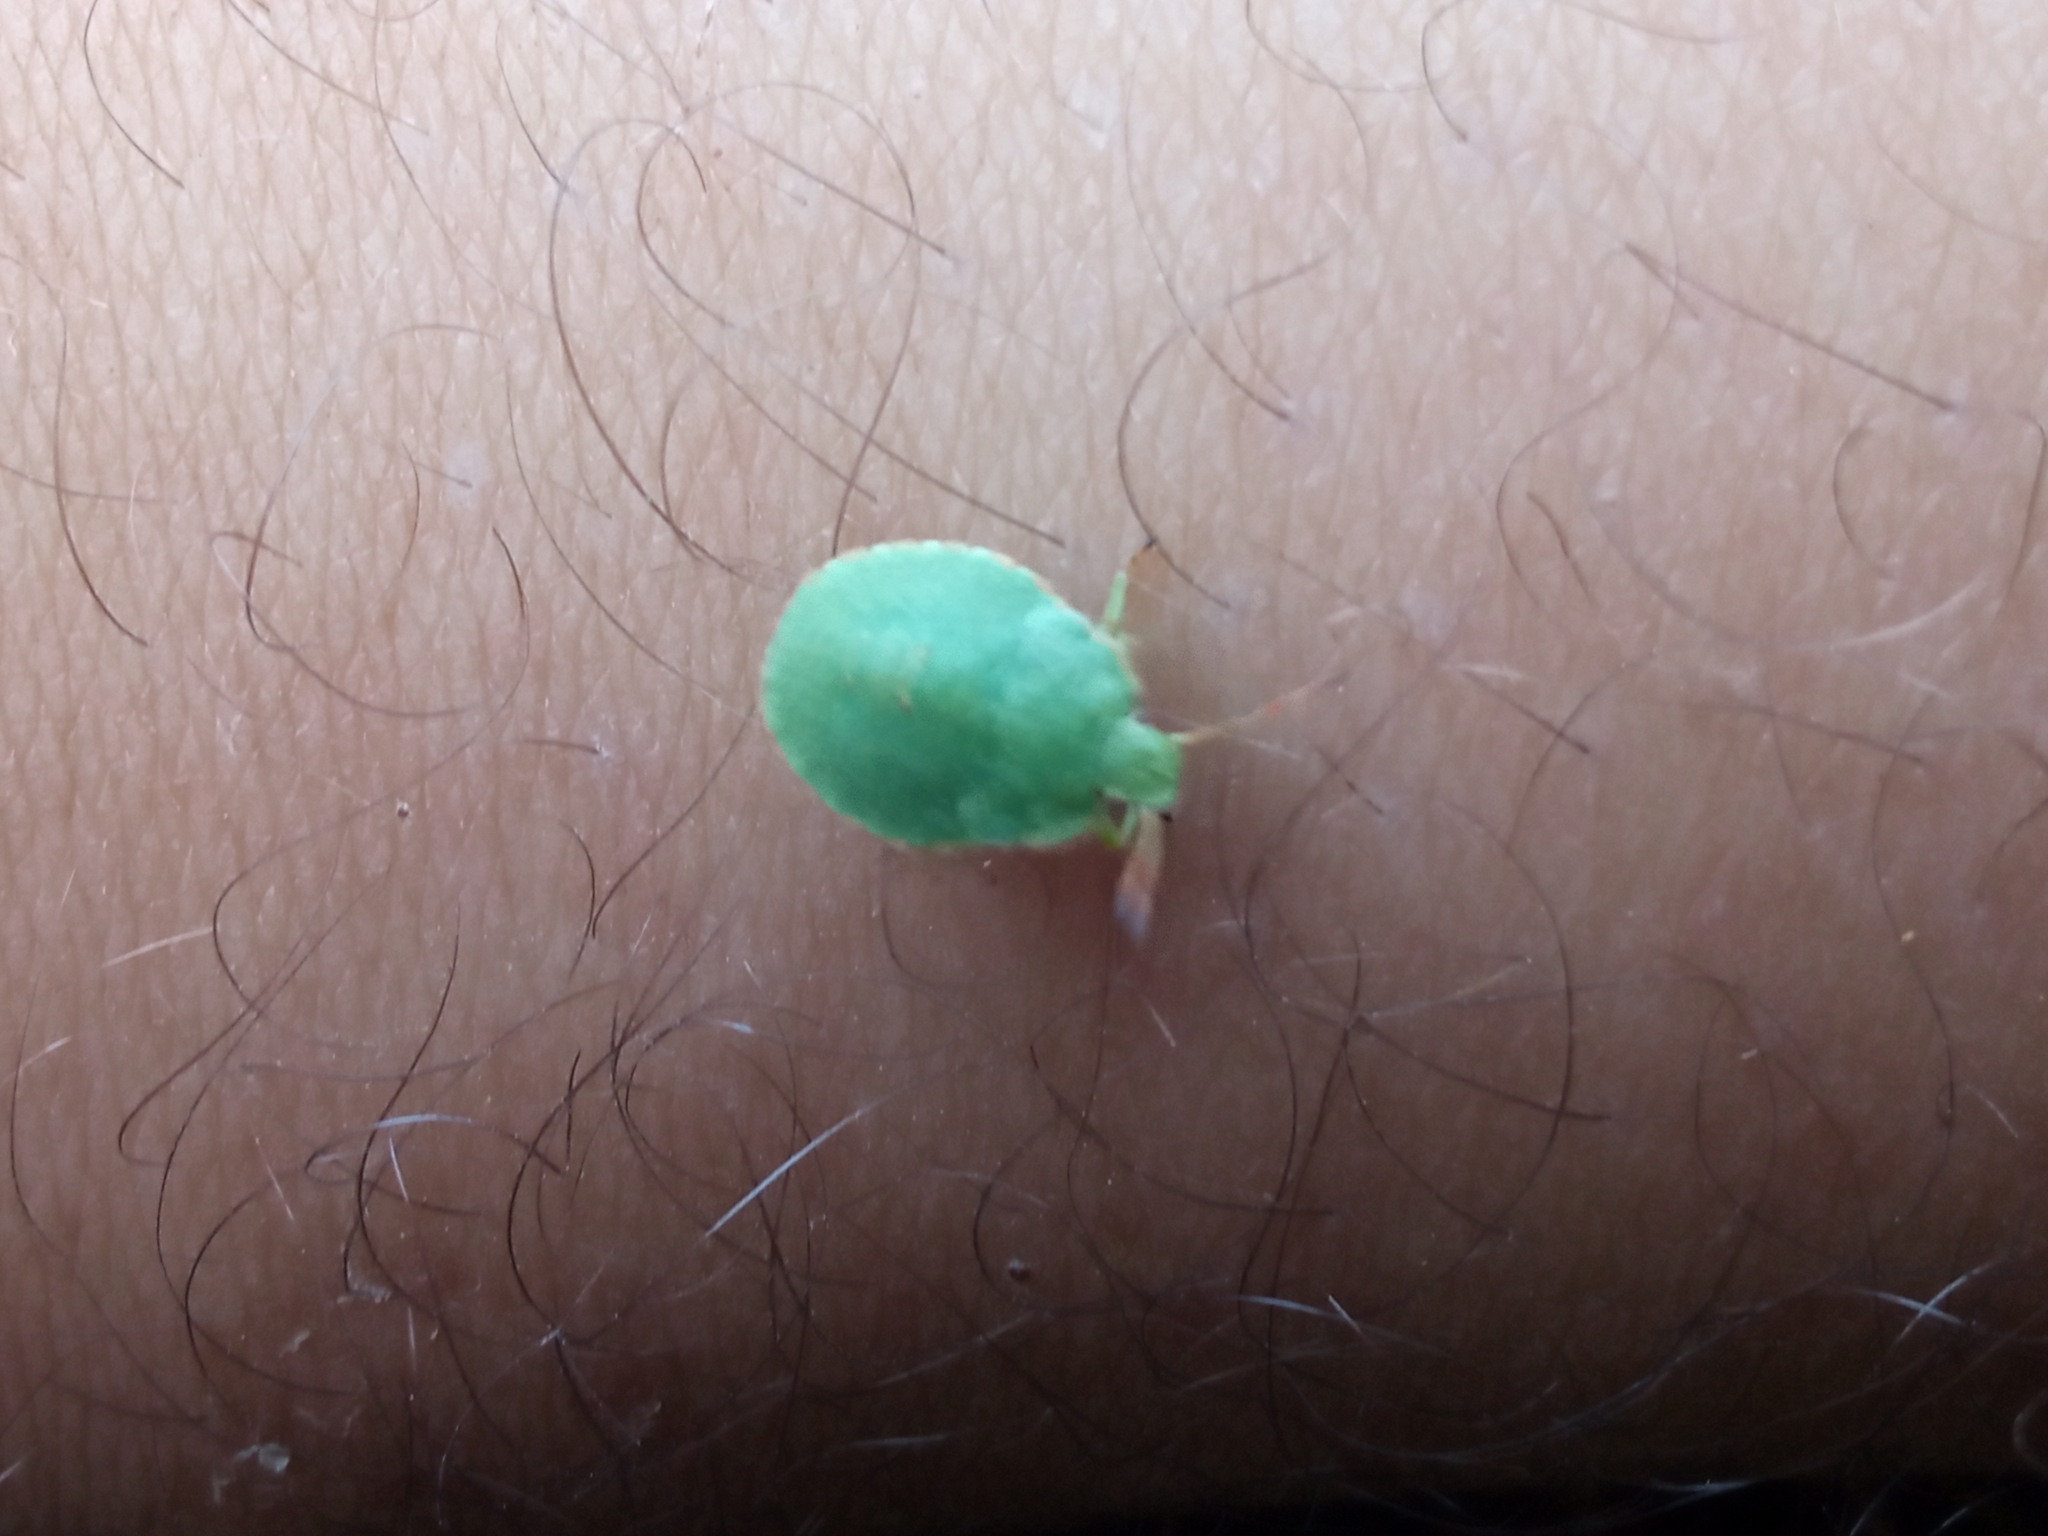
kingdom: Animalia
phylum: Arthropoda
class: Insecta
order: Hemiptera
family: Pentatomidae
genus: Palomena
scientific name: Palomena prasina
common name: Green shieldbug
